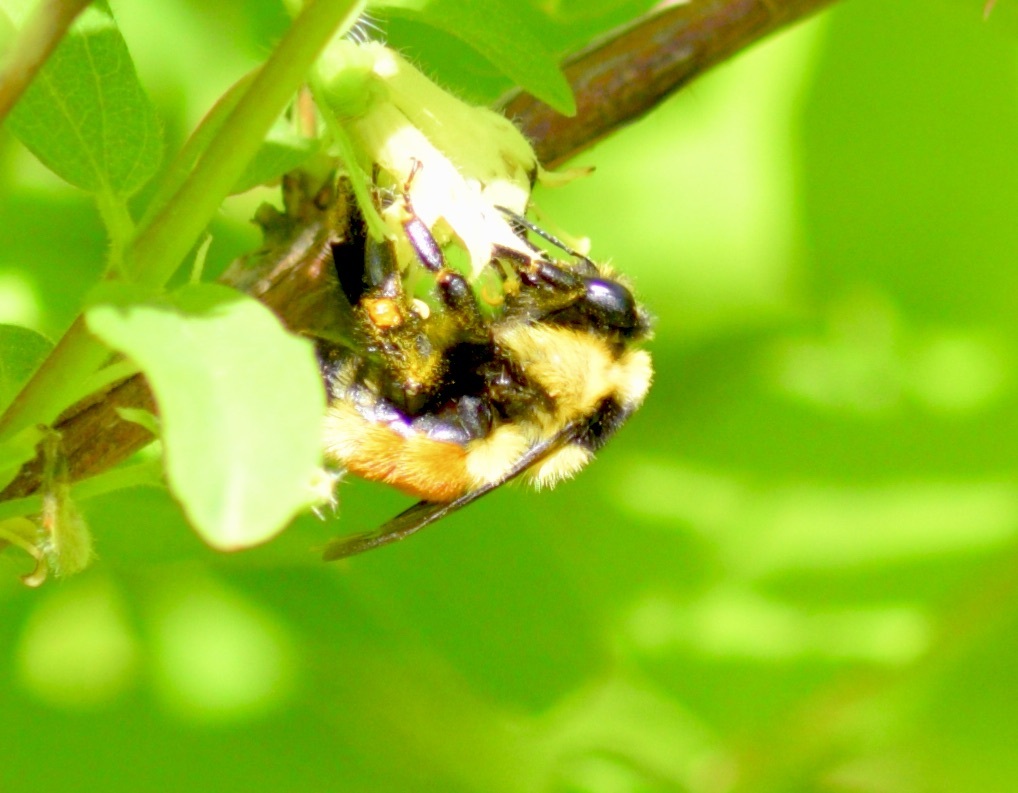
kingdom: Animalia
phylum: Arthropoda
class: Insecta
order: Hymenoptera
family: Apidae
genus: Bombus
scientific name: Bombus ternarius
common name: Tri-colored bumble bee
